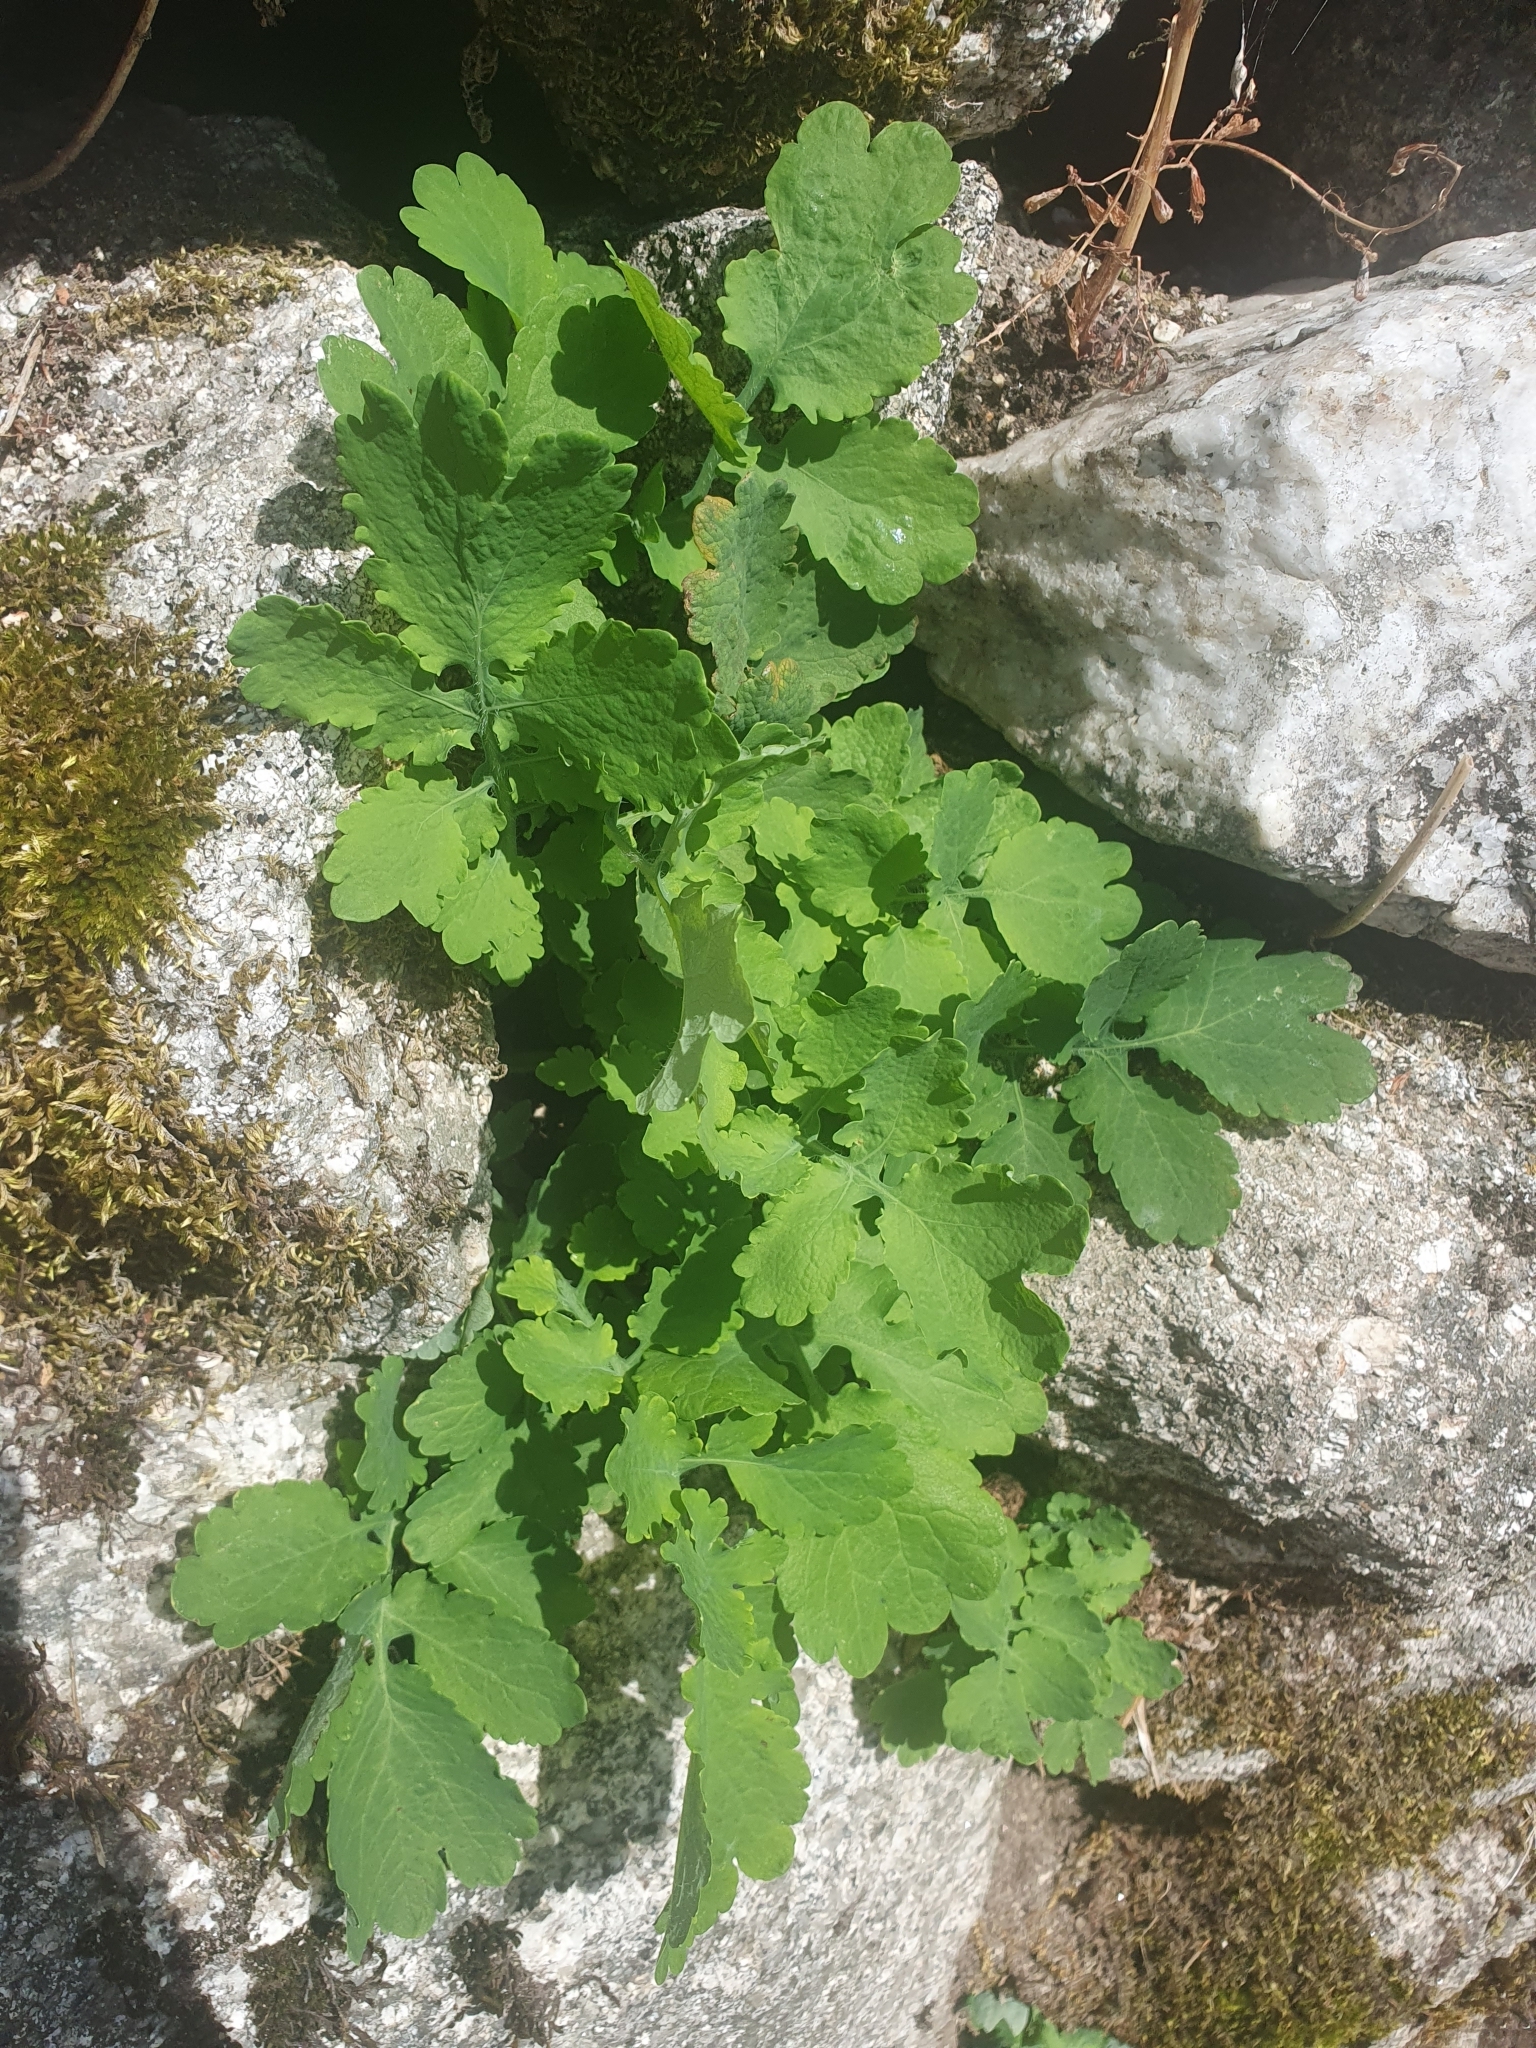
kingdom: Plantae
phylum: Tracheophyta
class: Magnoliopsida
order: Ranunculales
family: Papaveraceae
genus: Chelidonium
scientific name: Chelidonium majus
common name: Greater celandine
